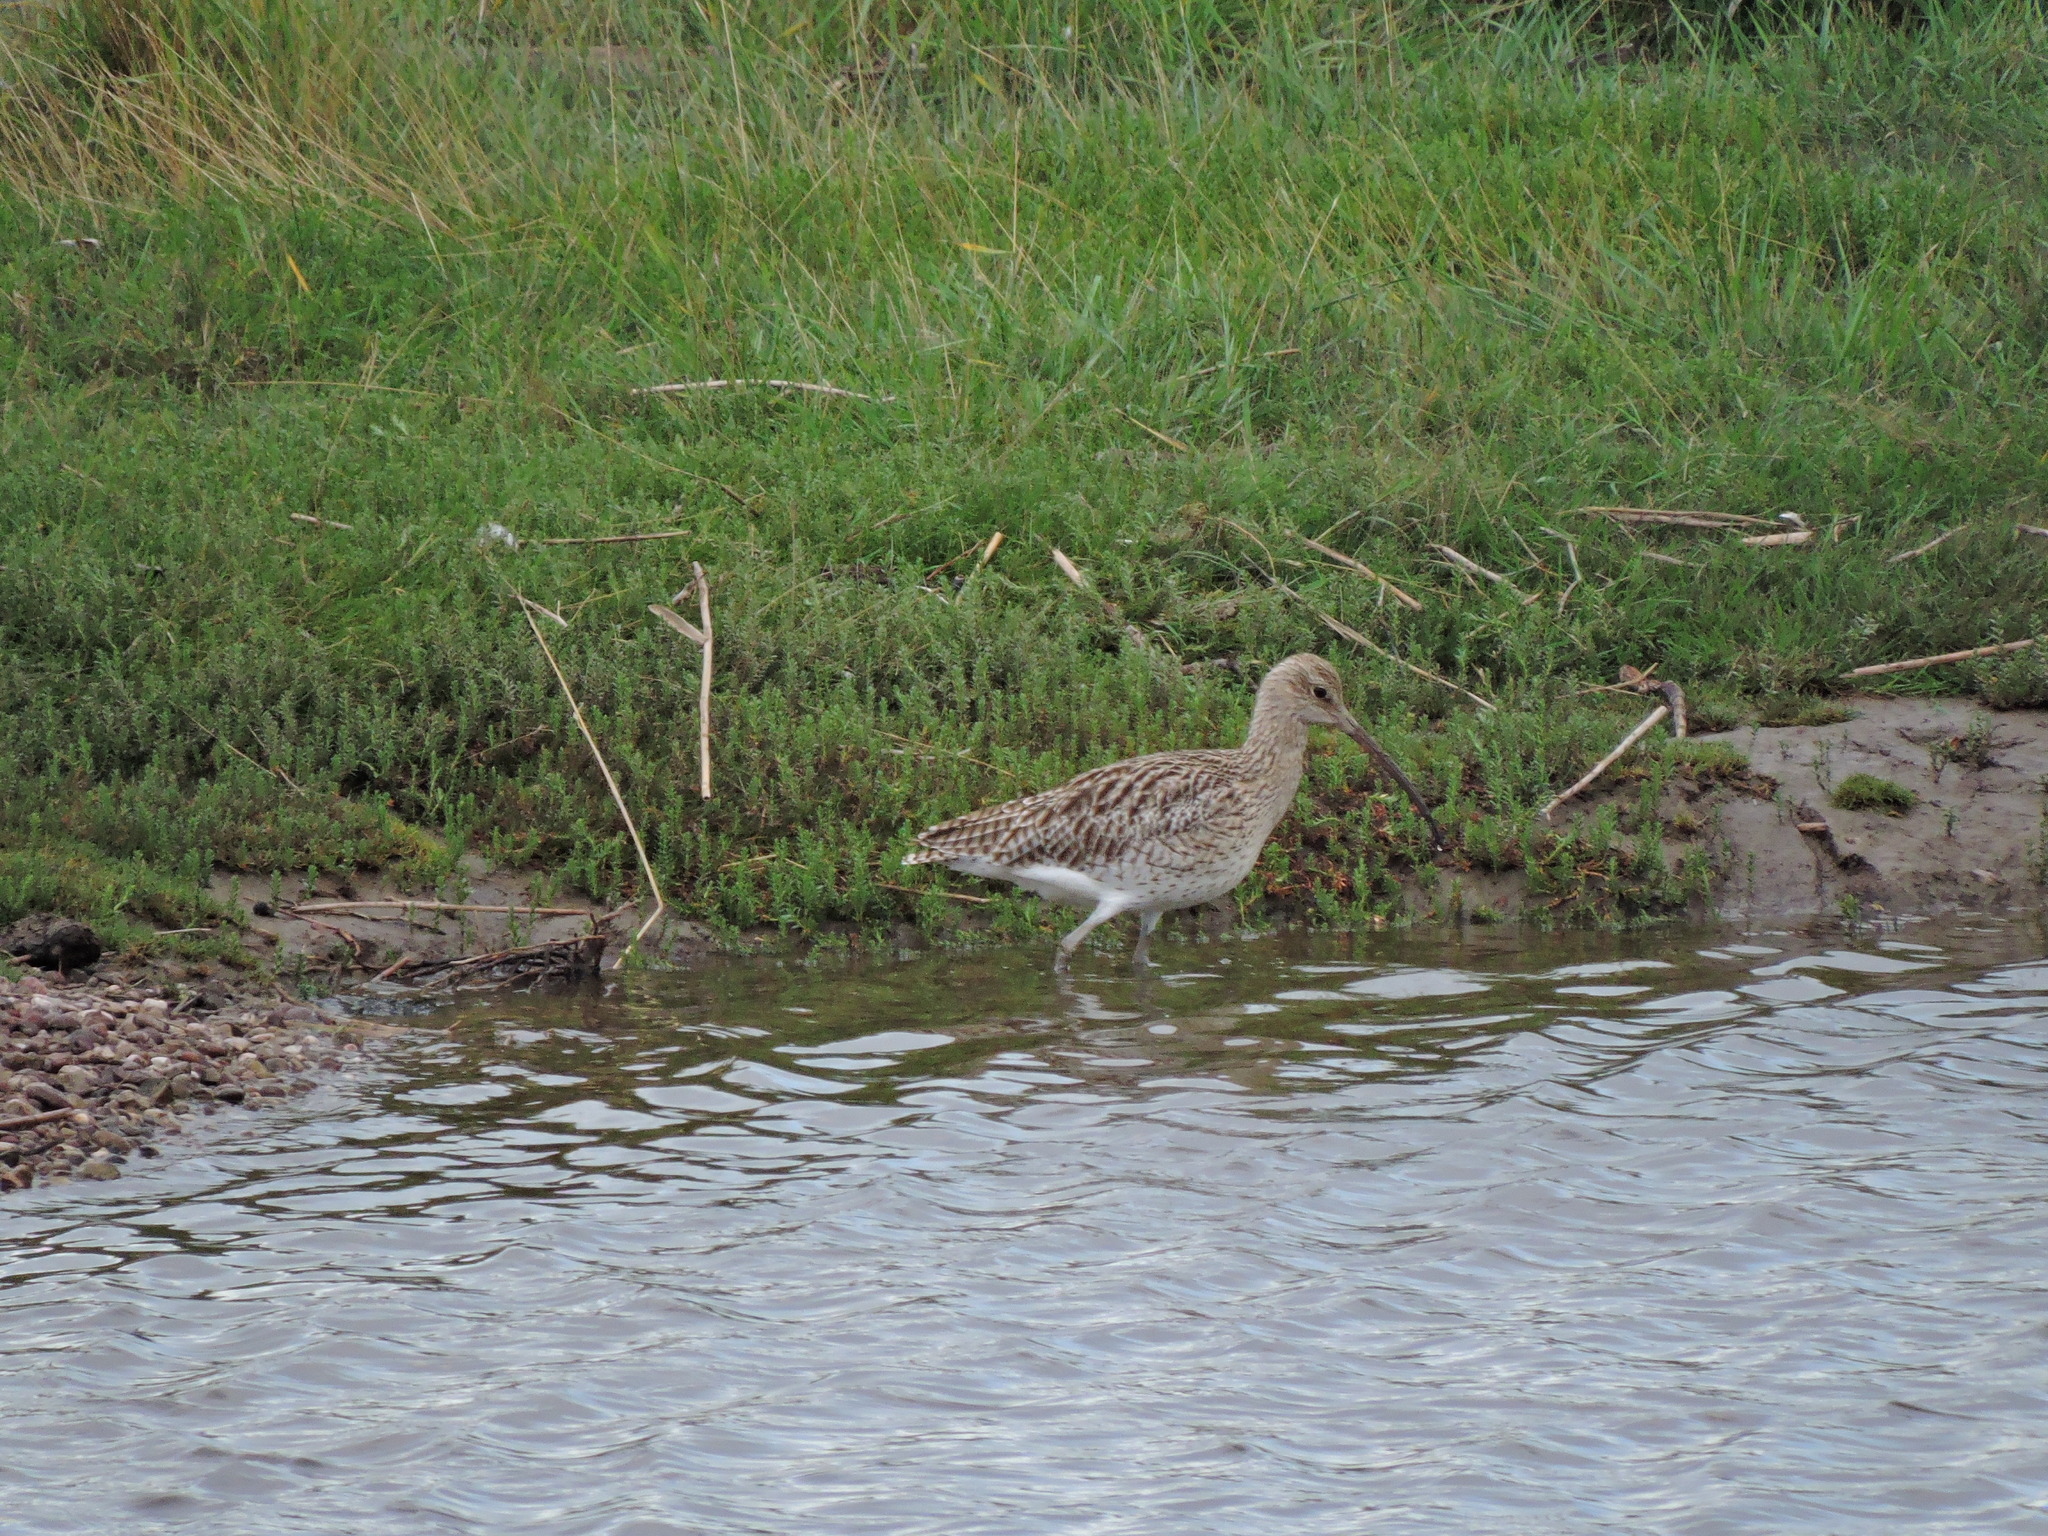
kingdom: Animalia
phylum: Chordata
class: Aves
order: Charadriiformes
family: Scolopacidae
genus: Numenius
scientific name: Numenius arquata
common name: Eurasian curlew
